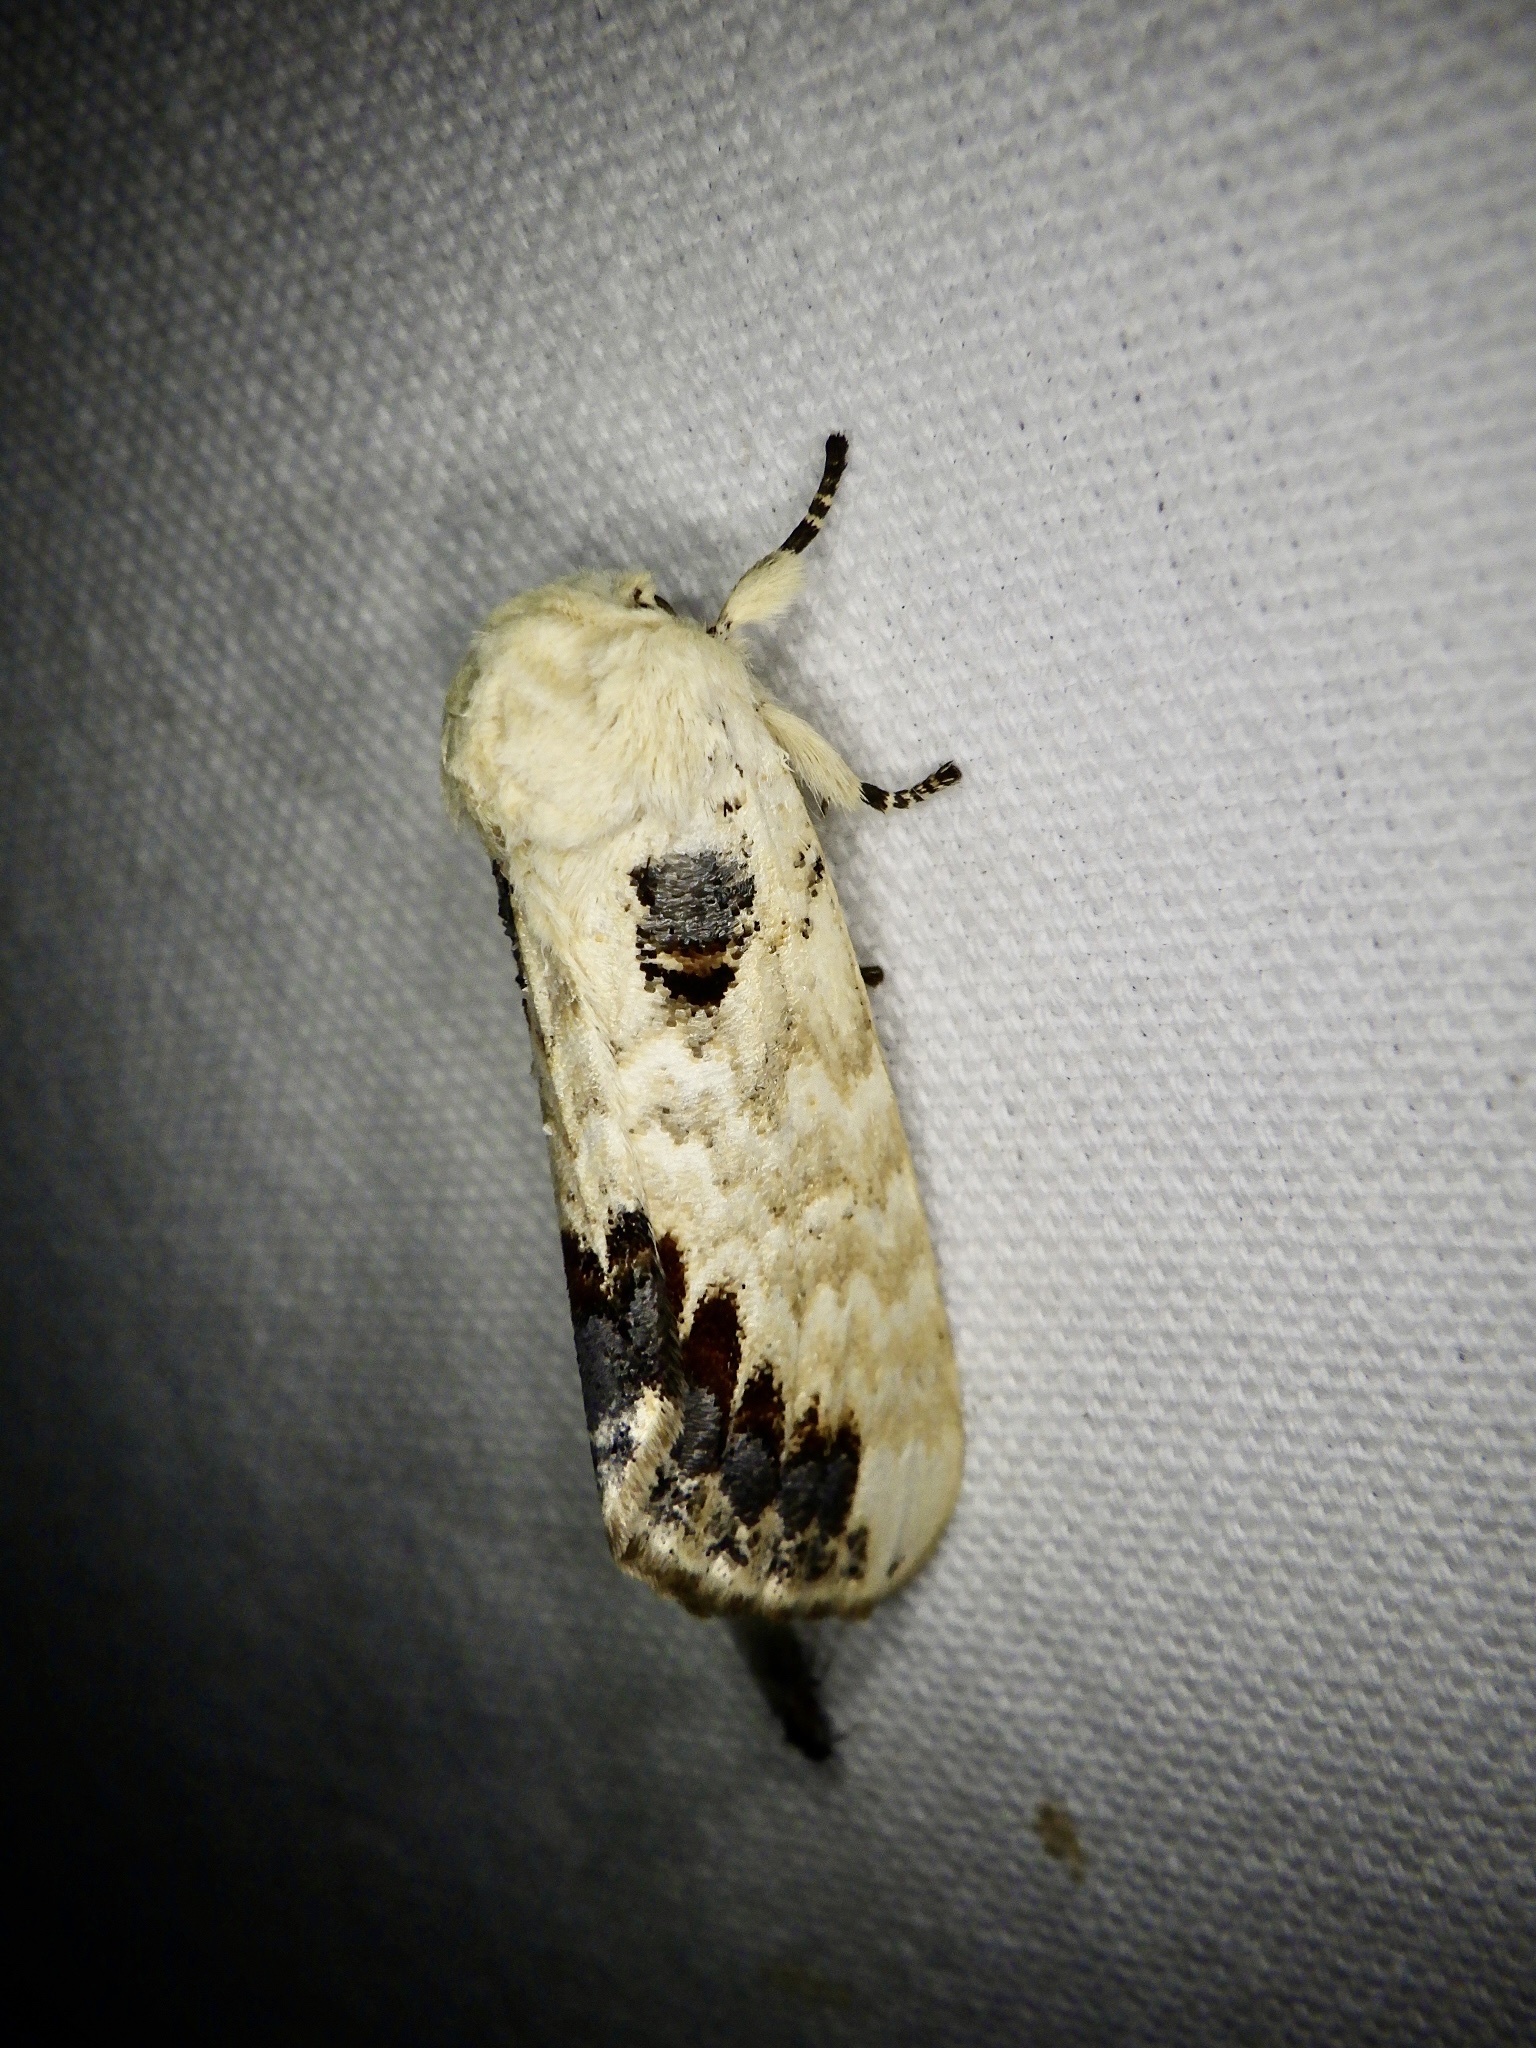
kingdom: Animalia
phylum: Arthropoda
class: Insecta
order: Lepidoptera
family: Notodontidae
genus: Phalera
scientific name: Phalera flavescens
